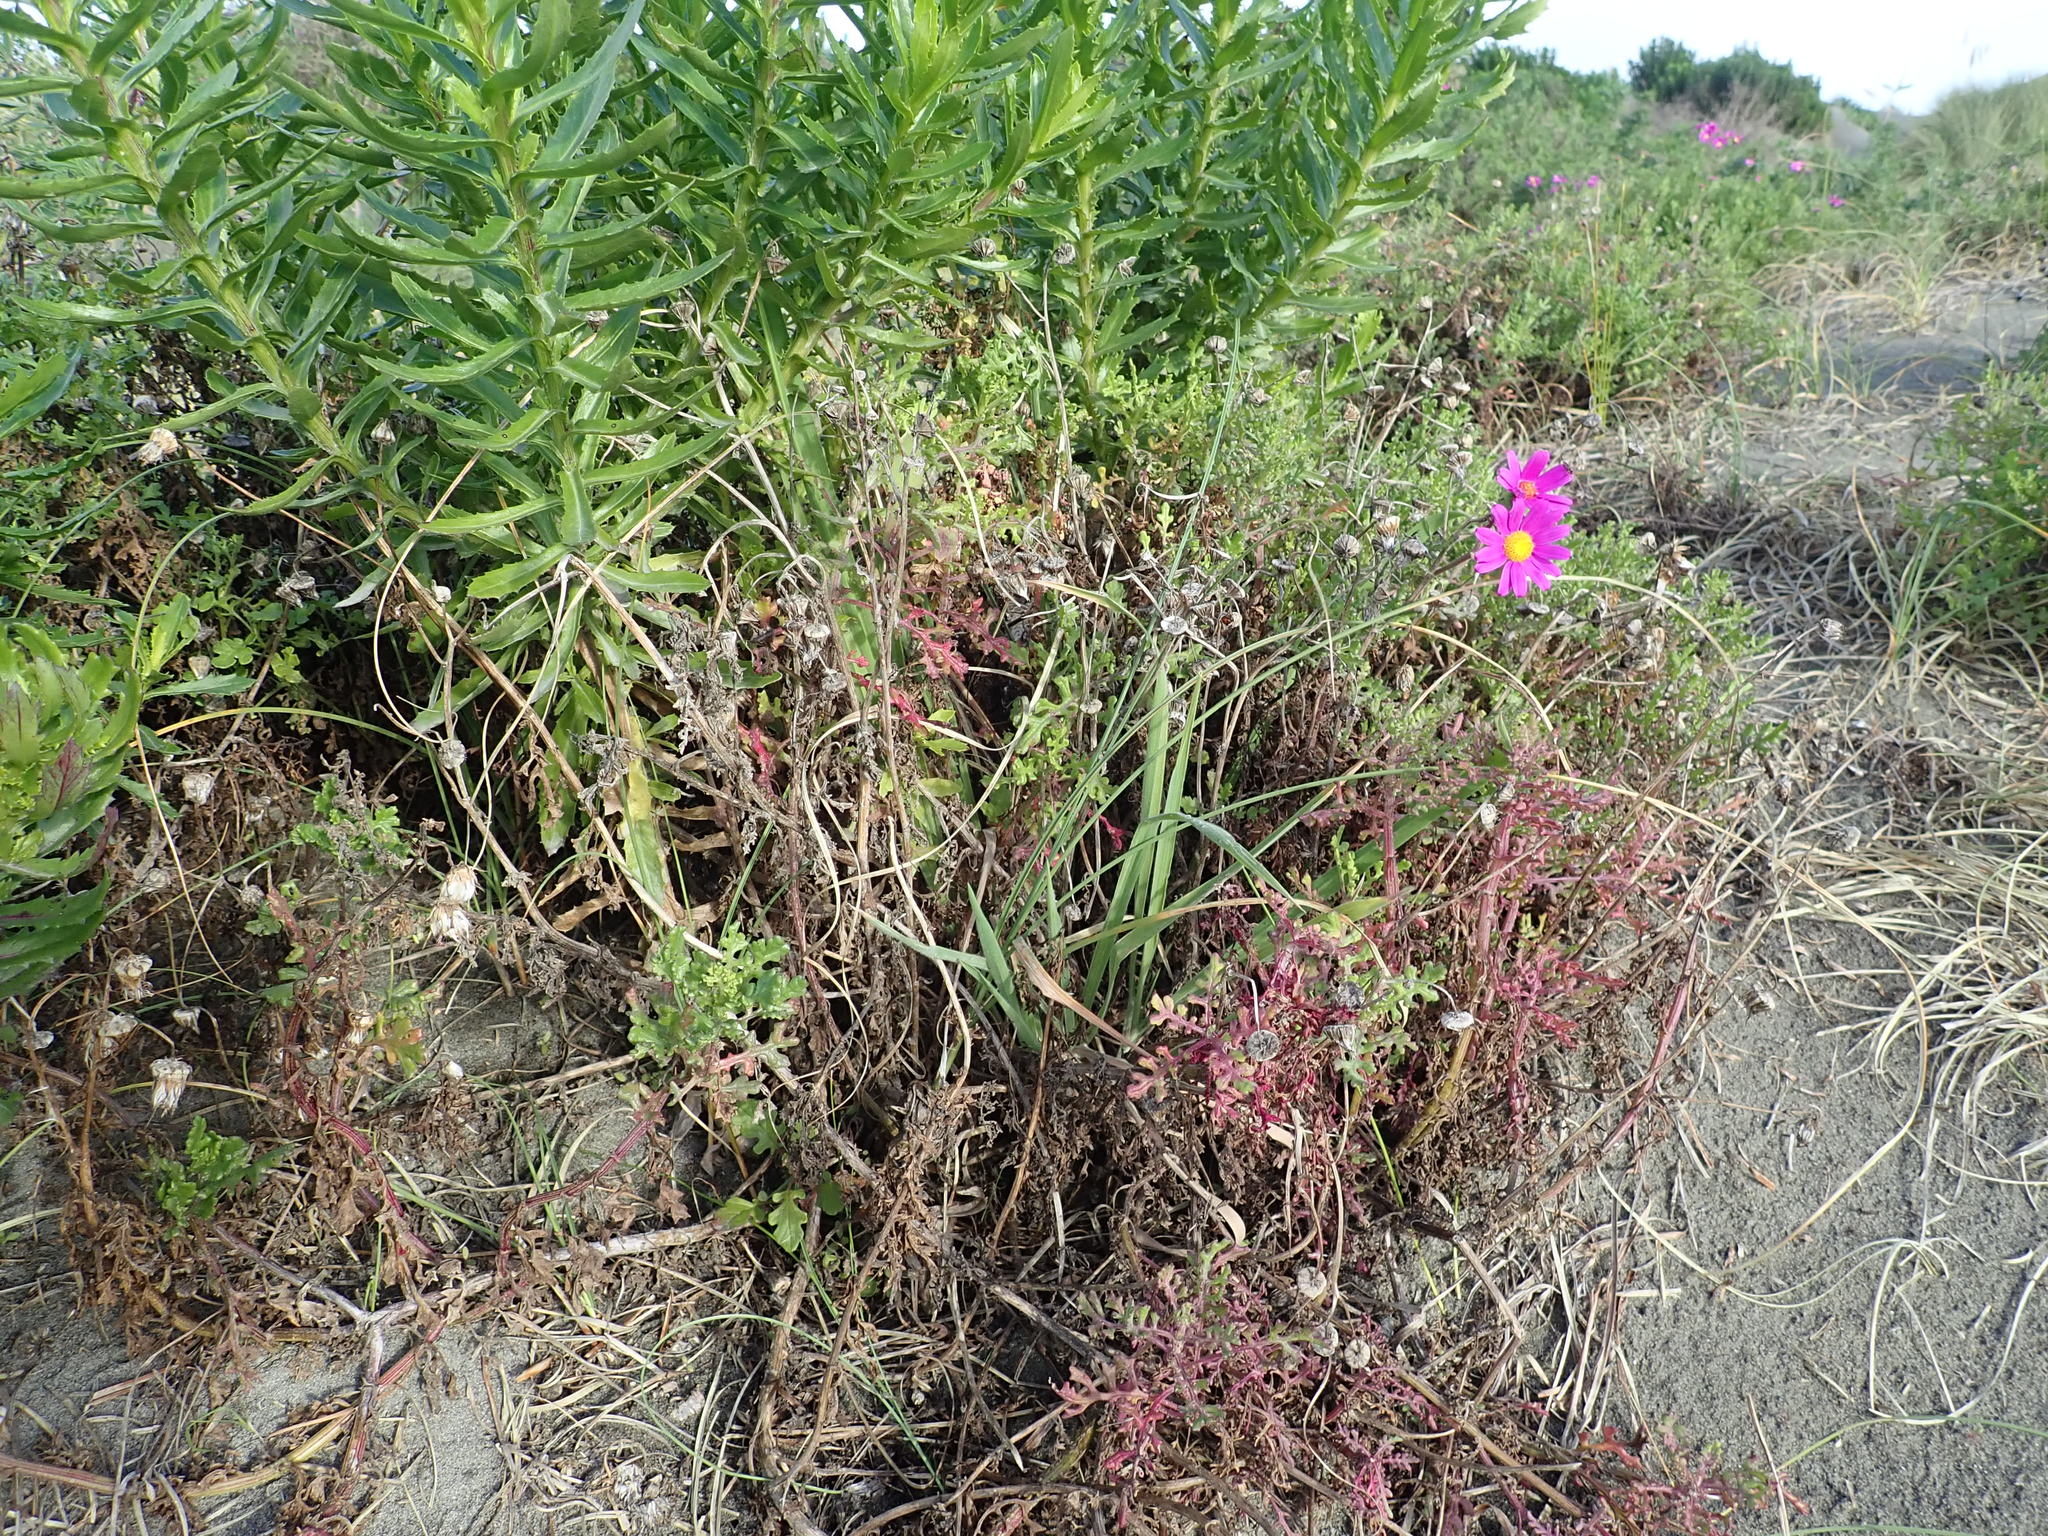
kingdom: Plantae
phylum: Tracheophyta
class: Magnoliopsida
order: Asterales
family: Asteraceae
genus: Senecio
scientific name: Senecio elegans
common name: Purple groundsel
